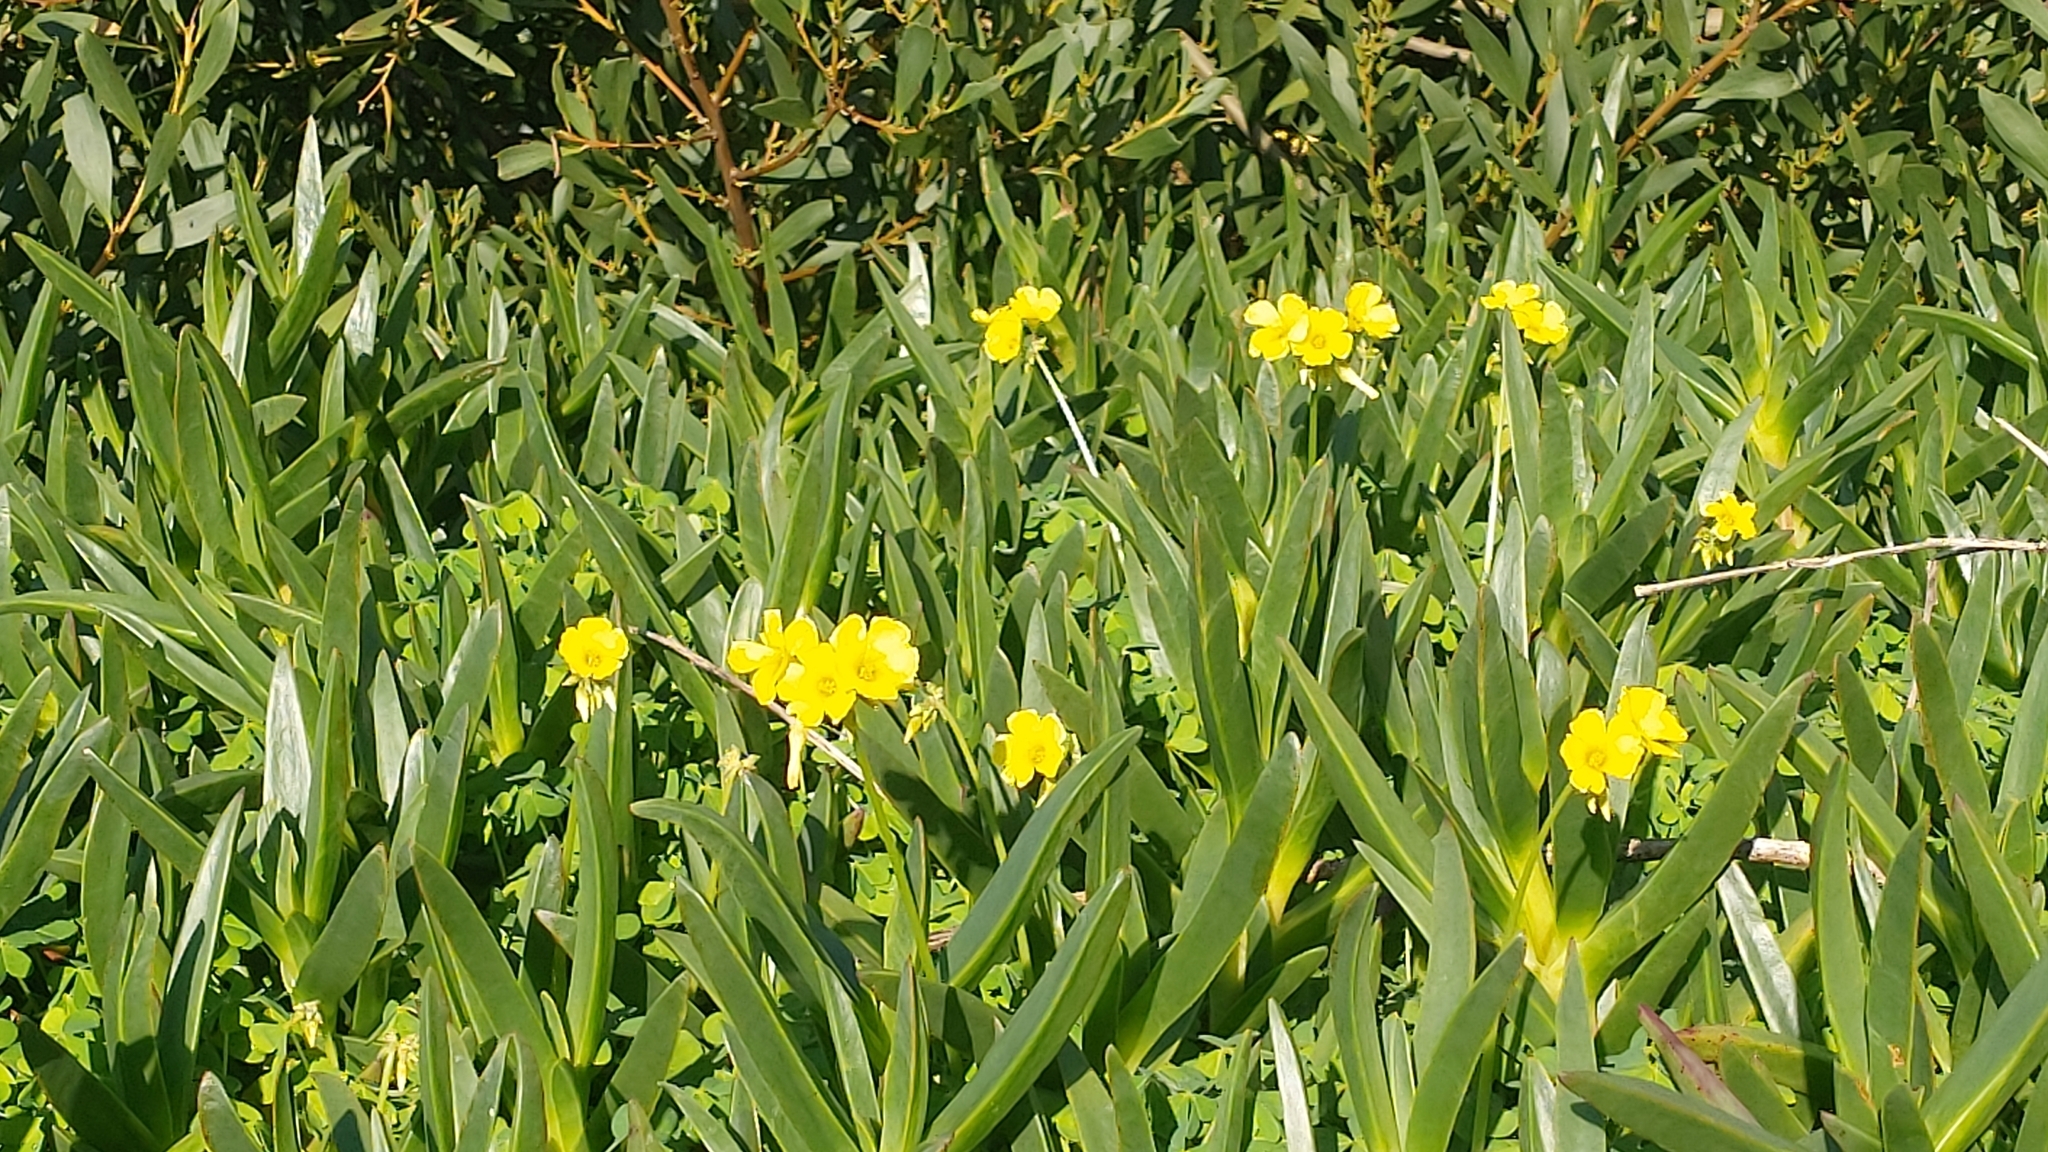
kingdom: Plantae
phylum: Tracheophyta
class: Magnoliopsida
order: Oxalidales
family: Oxalidaceae
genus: Oxalis
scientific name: Oxalis pes-caprae
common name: Bermuda-buttercup
